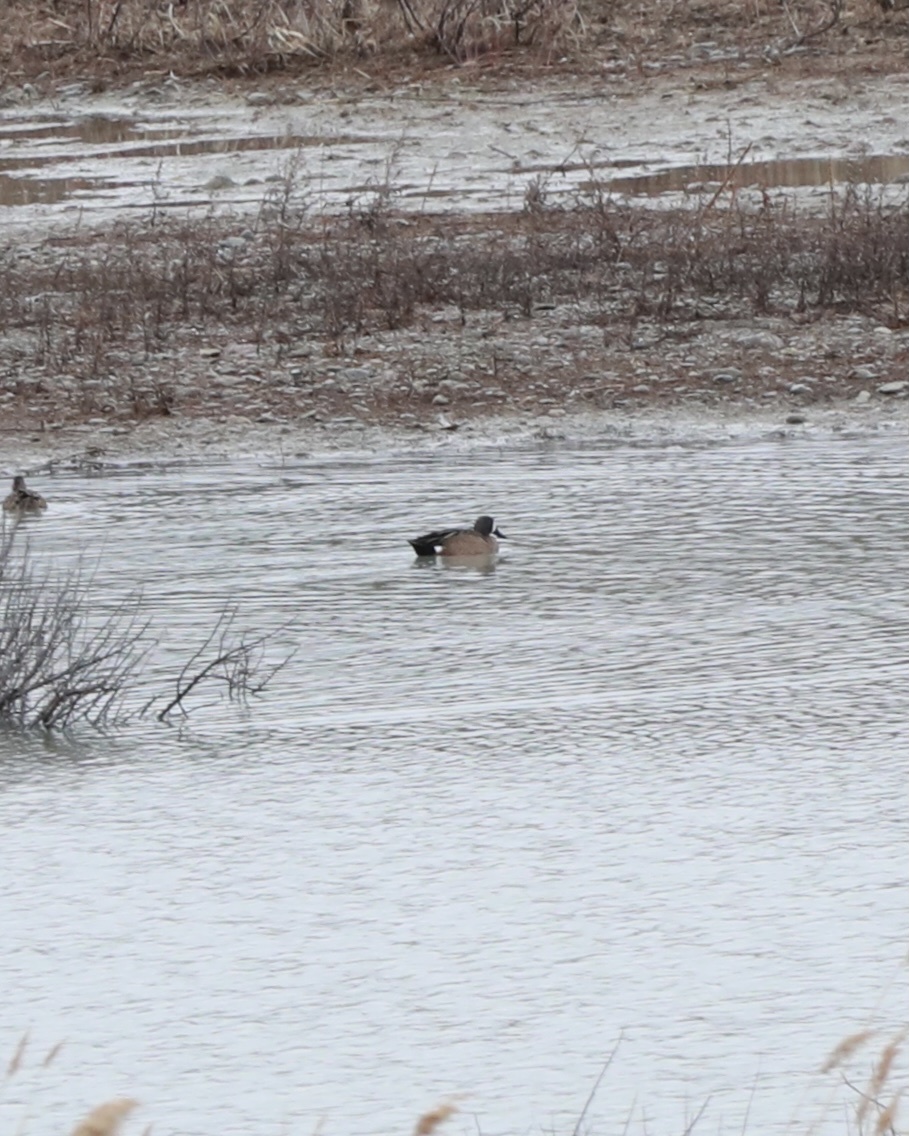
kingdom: Animalia
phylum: Chordata
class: Aves
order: Anseriformes
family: Anatidae
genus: Spatula
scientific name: Spatula discors
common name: Blue-winged teal
